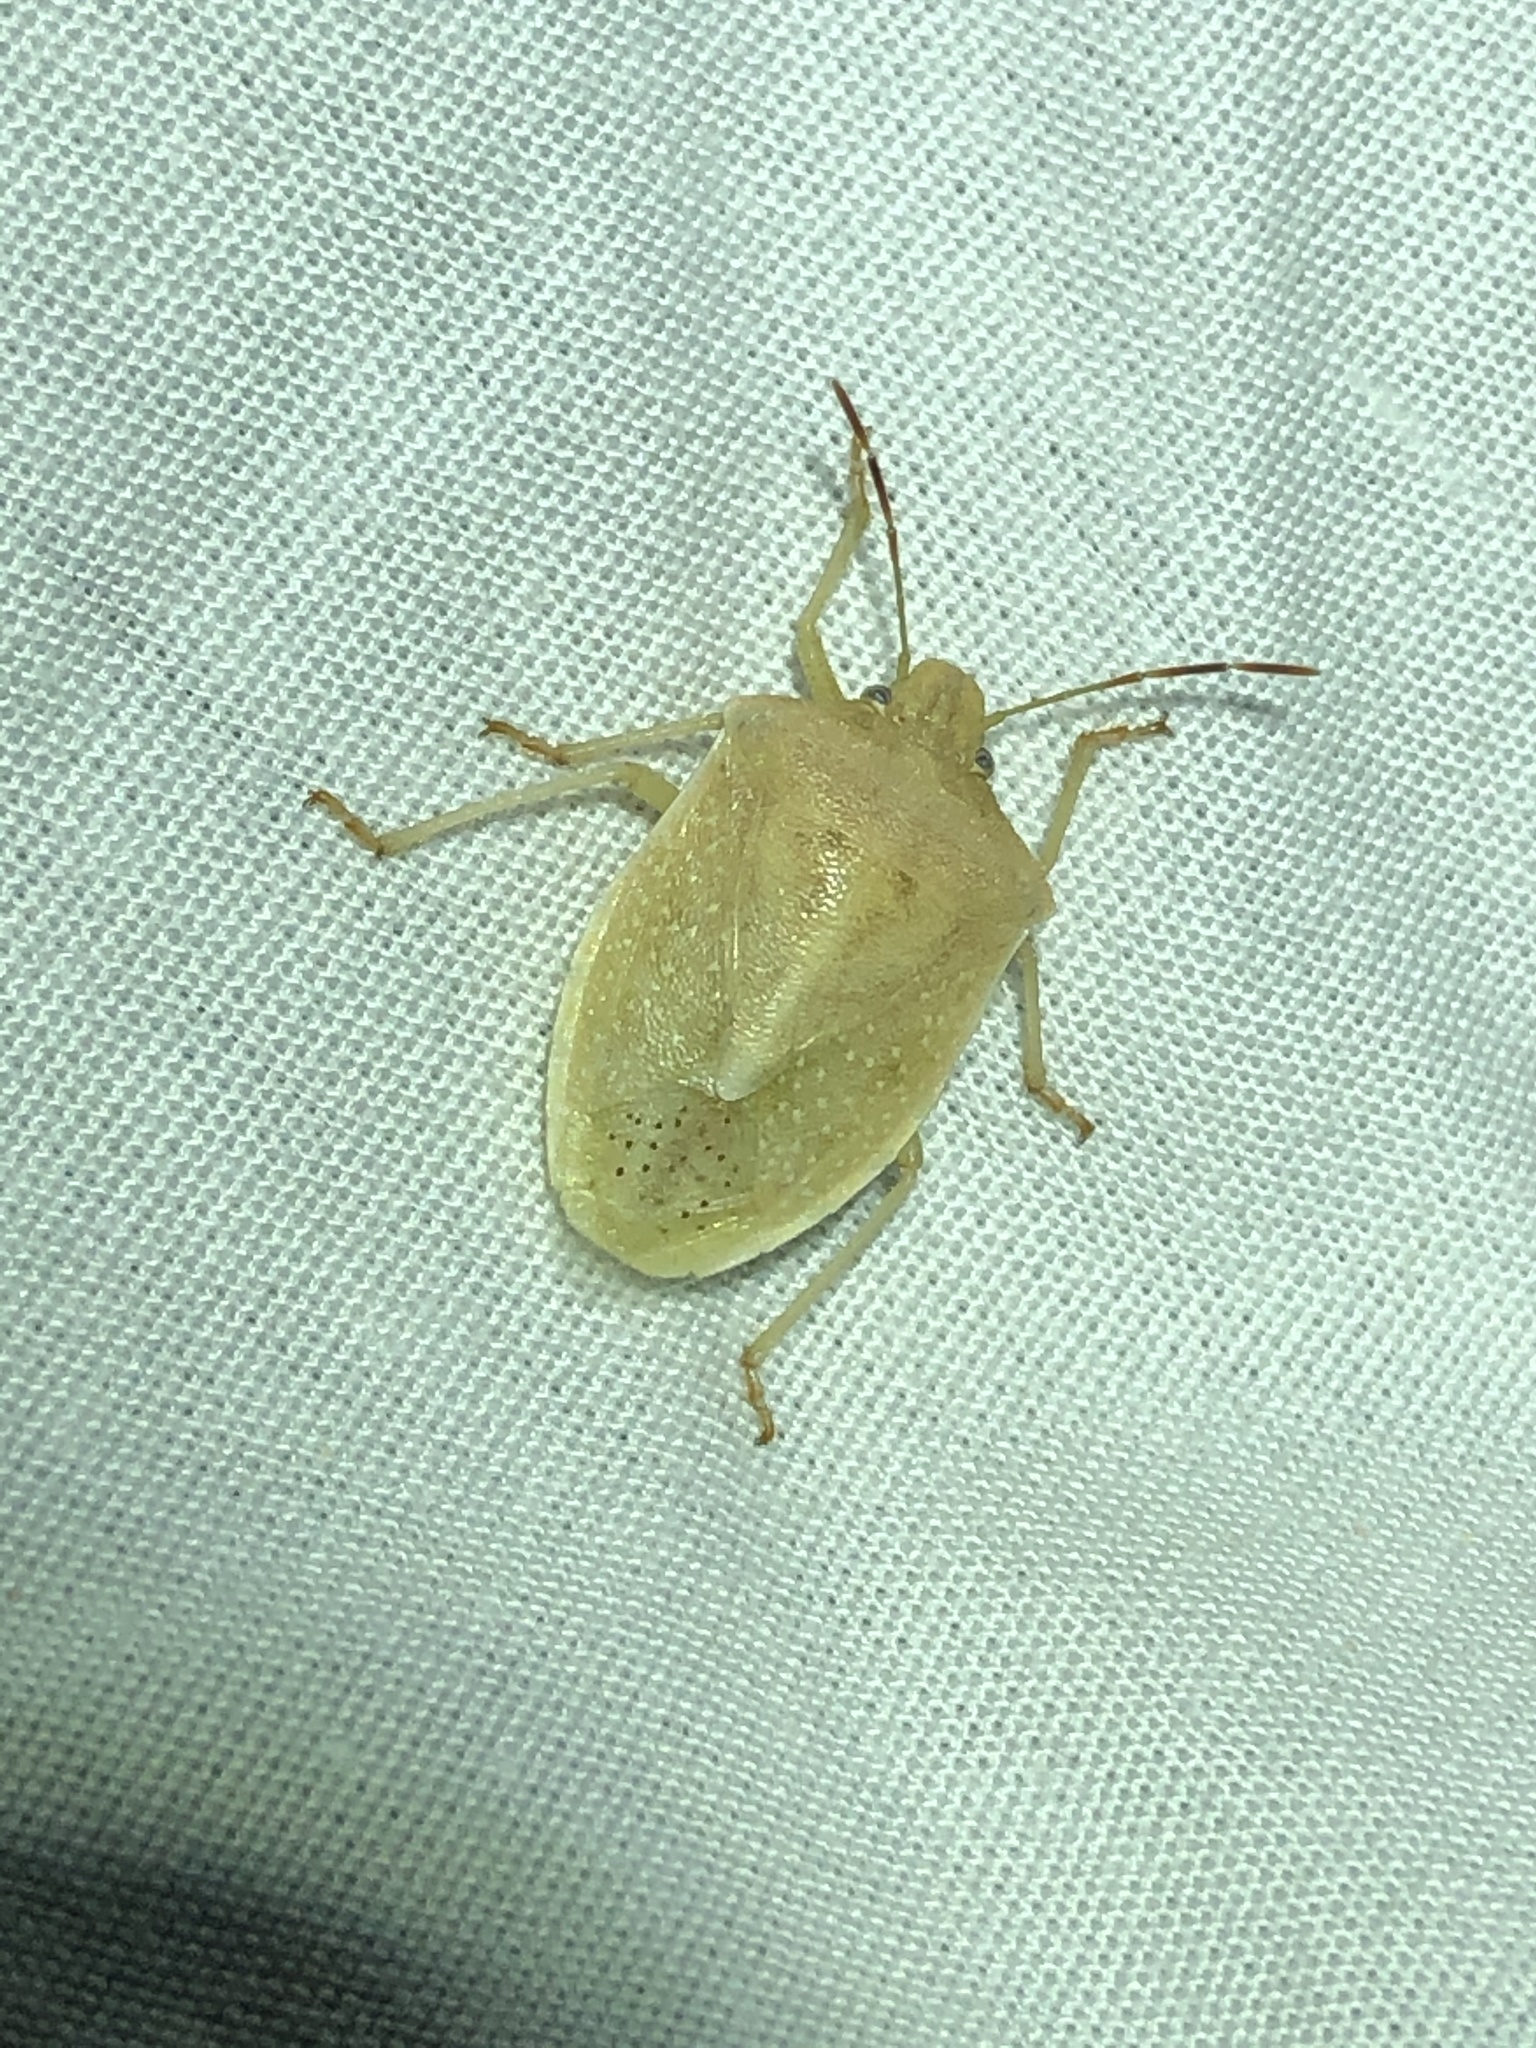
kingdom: Animalia
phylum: Arthropoda
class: Insecta
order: Hemiptera
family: Pentatomidae
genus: Thyanta
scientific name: Thyanta accerra
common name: Stink bug
